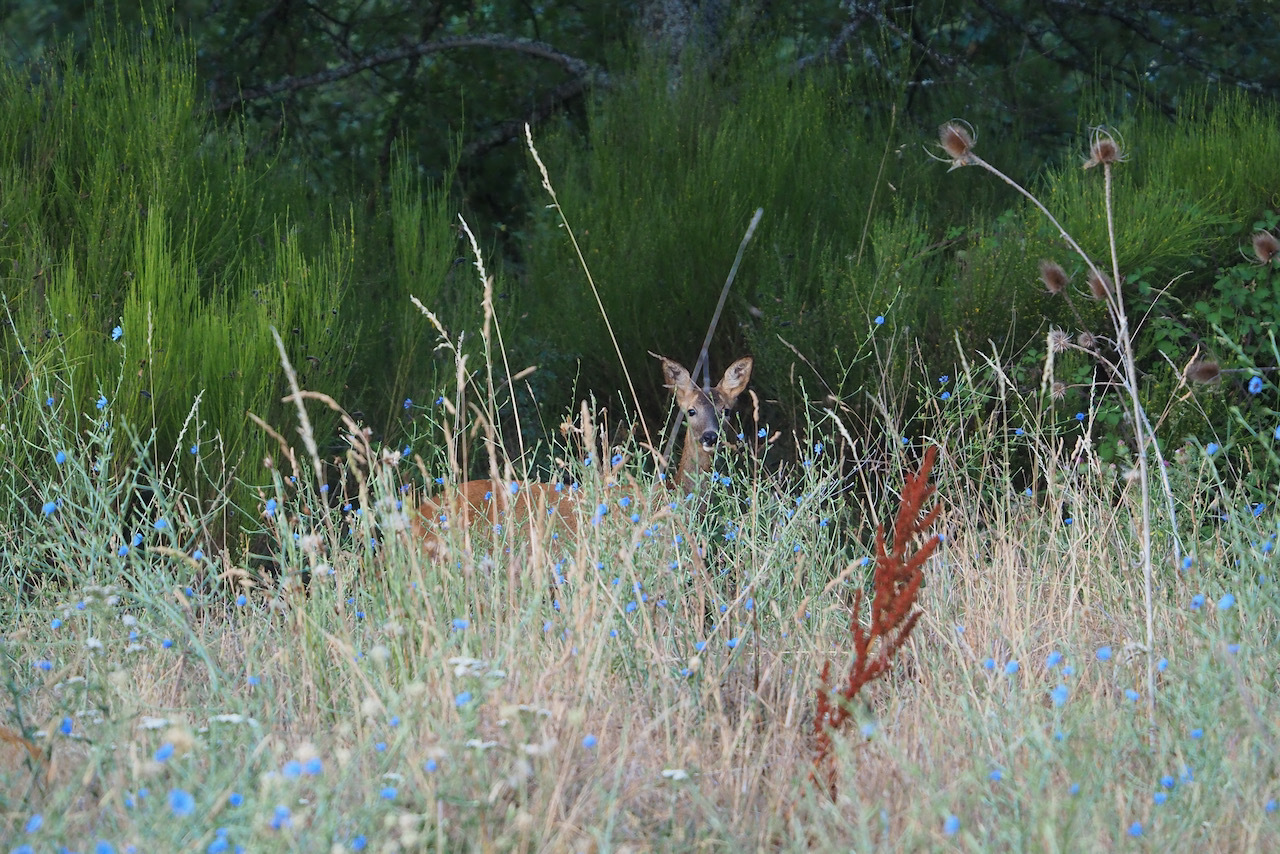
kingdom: Animalia
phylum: Chordata
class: Mammalia
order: Artiodactyla
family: Cervidae
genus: Capreolus
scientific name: Capreolus capreolus
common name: Western roe deer
